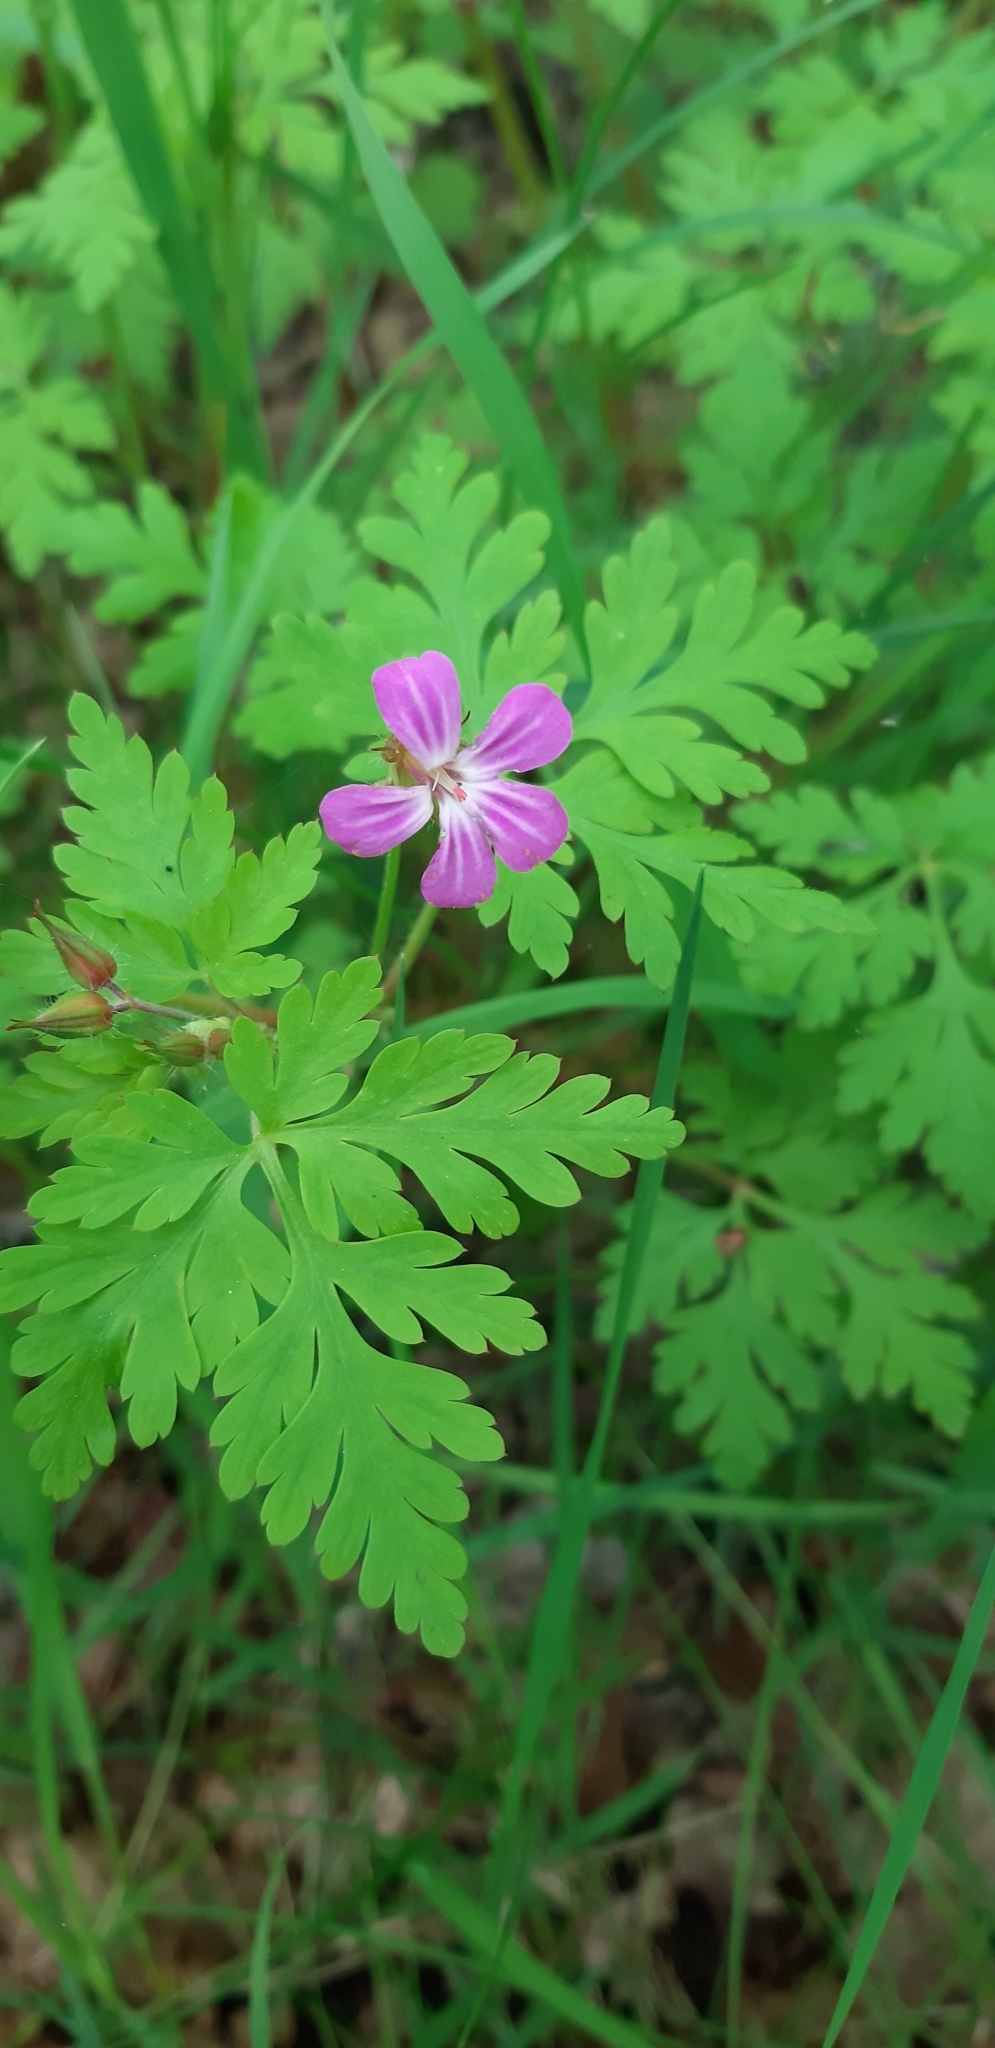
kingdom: Plantae
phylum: Tracheophyta
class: Magnoliopsida
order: Geraniales
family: Geraniaceae
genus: Geranium
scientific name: Geranium robertianum
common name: Herb-robert
